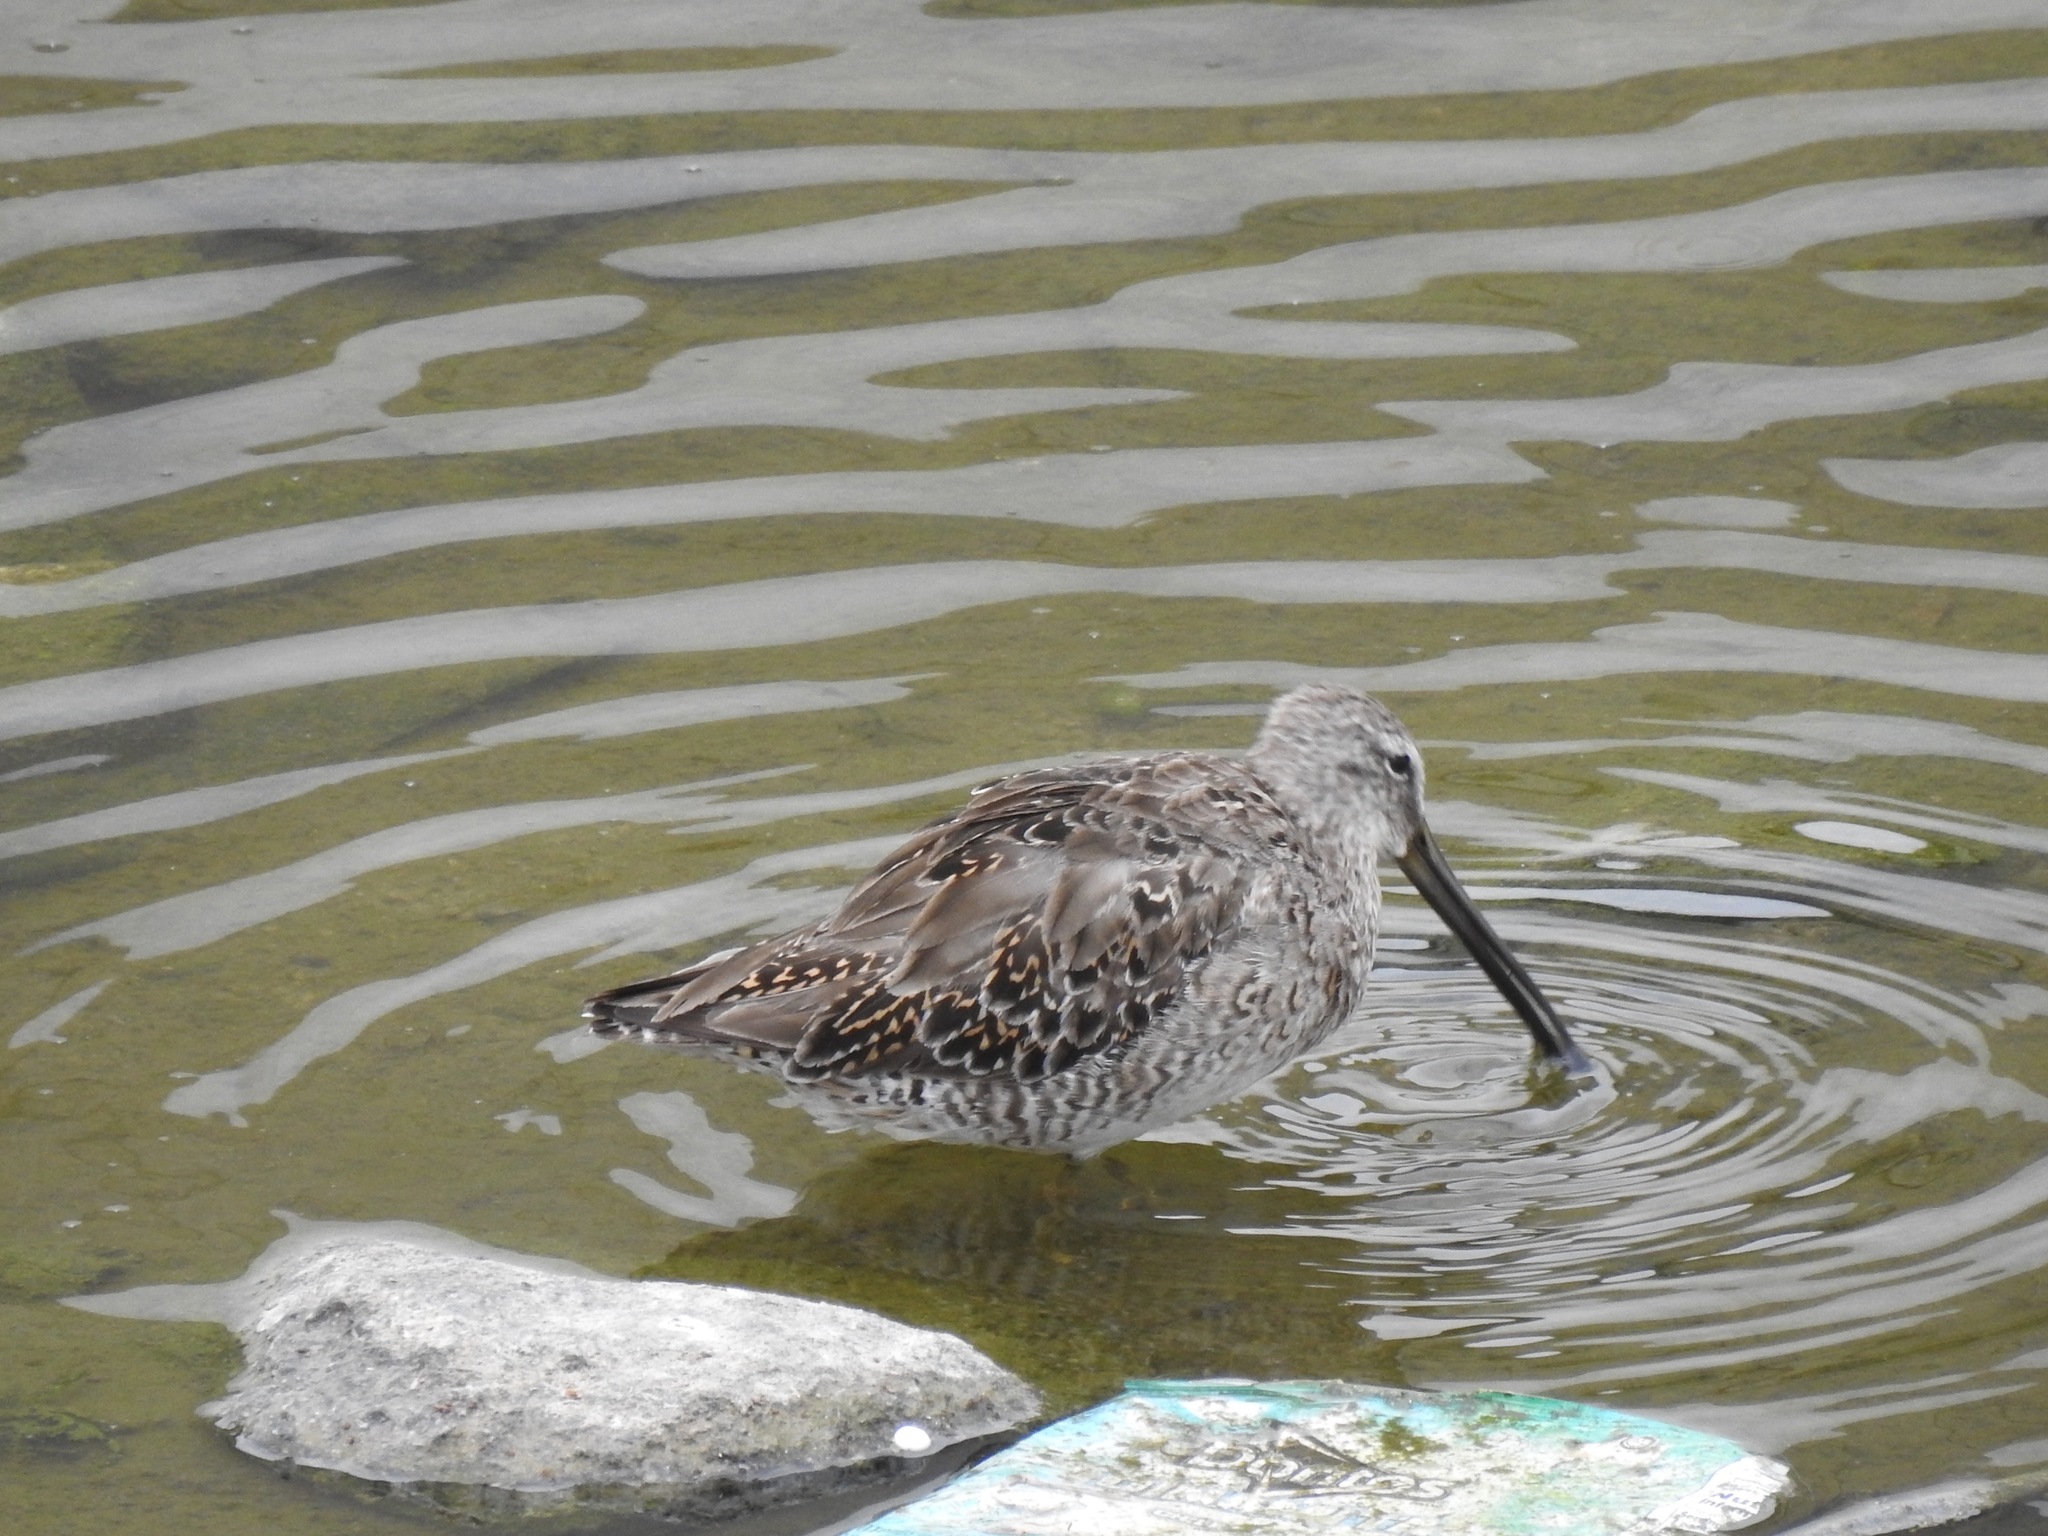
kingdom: Animalia
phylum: Chordata
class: Aves
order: Charadriiformes
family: Scolopacidae
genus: Limnodromus
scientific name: Limnodromus scolopaceus
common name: Long-billed dowitcher
